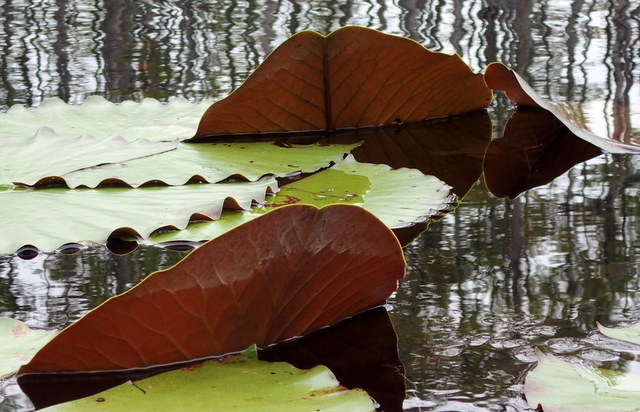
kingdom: Plantae
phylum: Tracheophyta
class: Magnoliopsida
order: Nymphaeales
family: Nymphaeaceae
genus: Nymphaea
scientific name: Nymphaea odorata
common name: Fragrant water-lily
